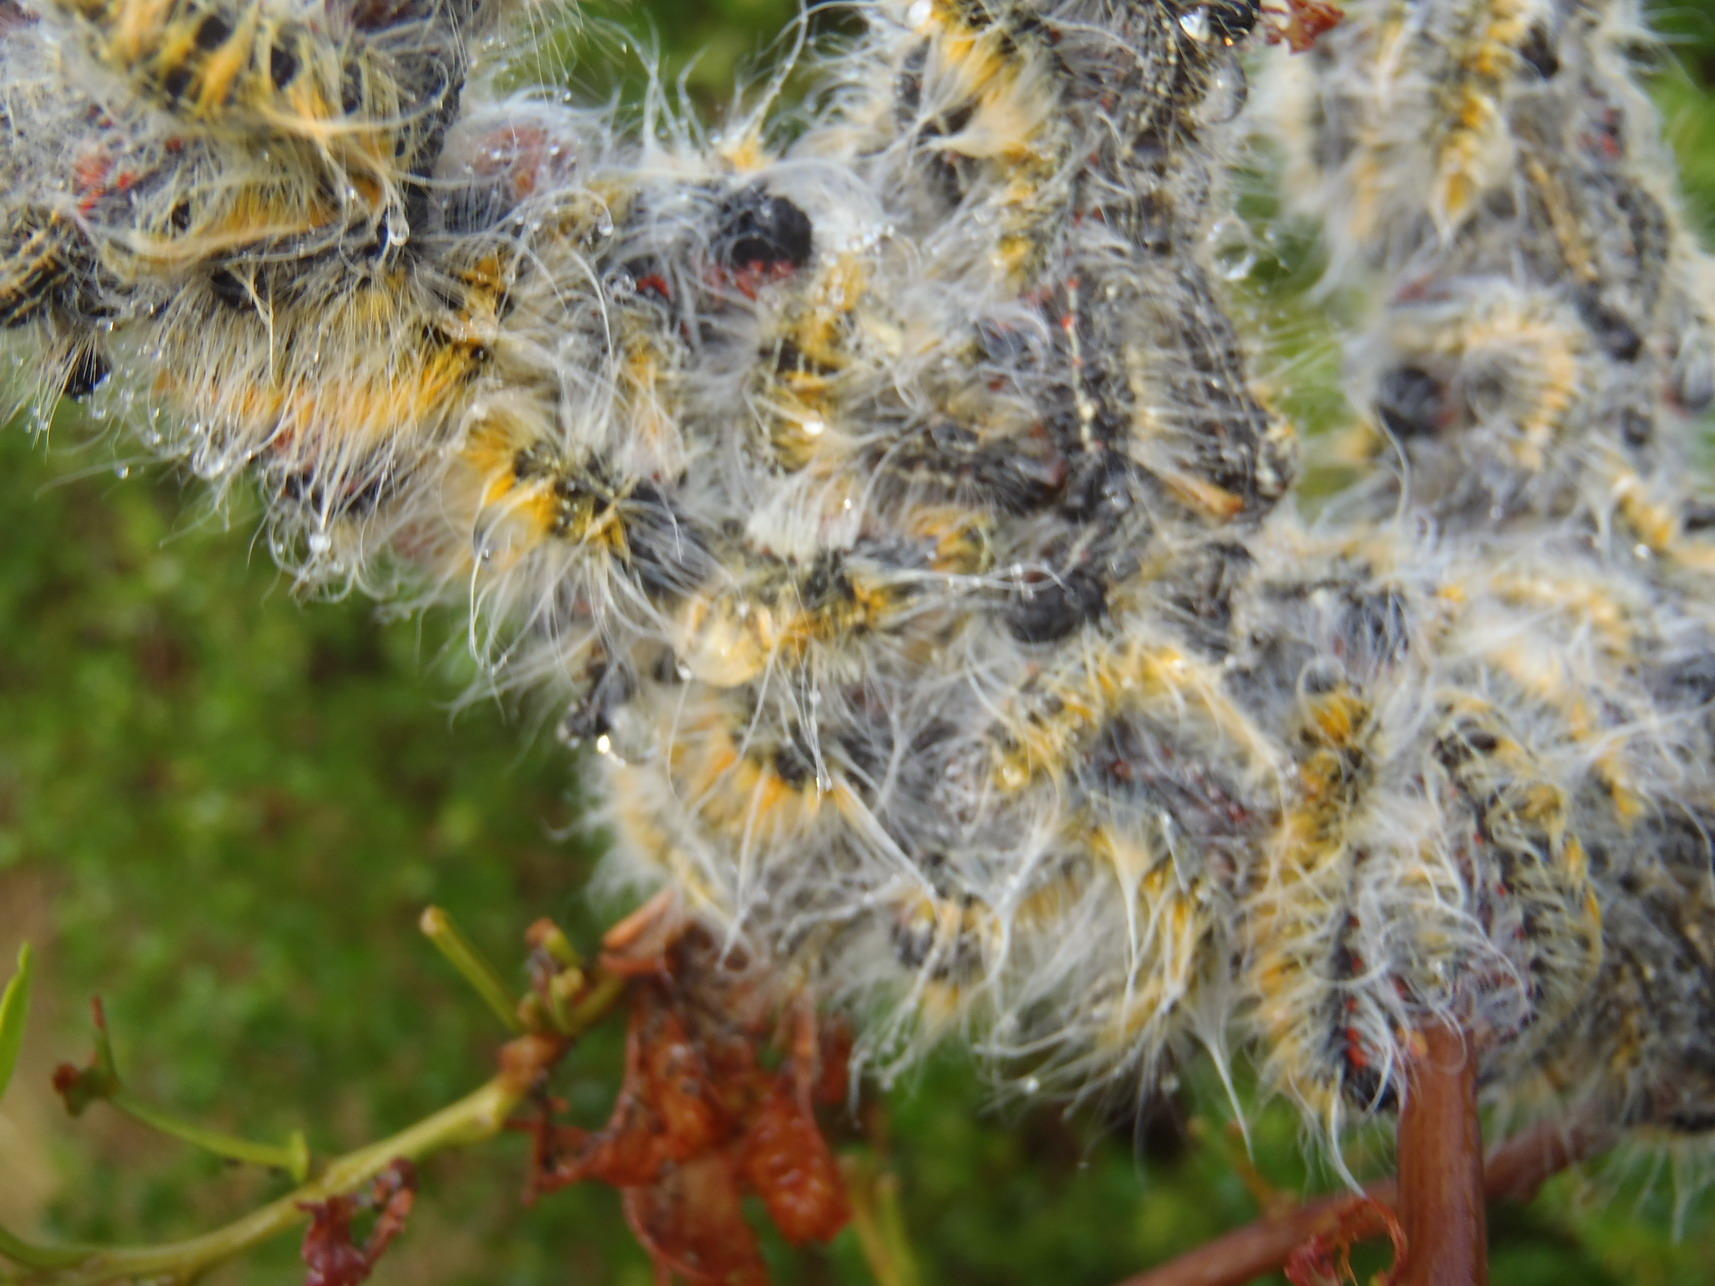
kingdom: Animalia
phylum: Arthropoda
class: Insecta
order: Lepidoptera
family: Lasiocampidae
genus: Bombycomorpha
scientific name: Bombycomorpha bifascia
